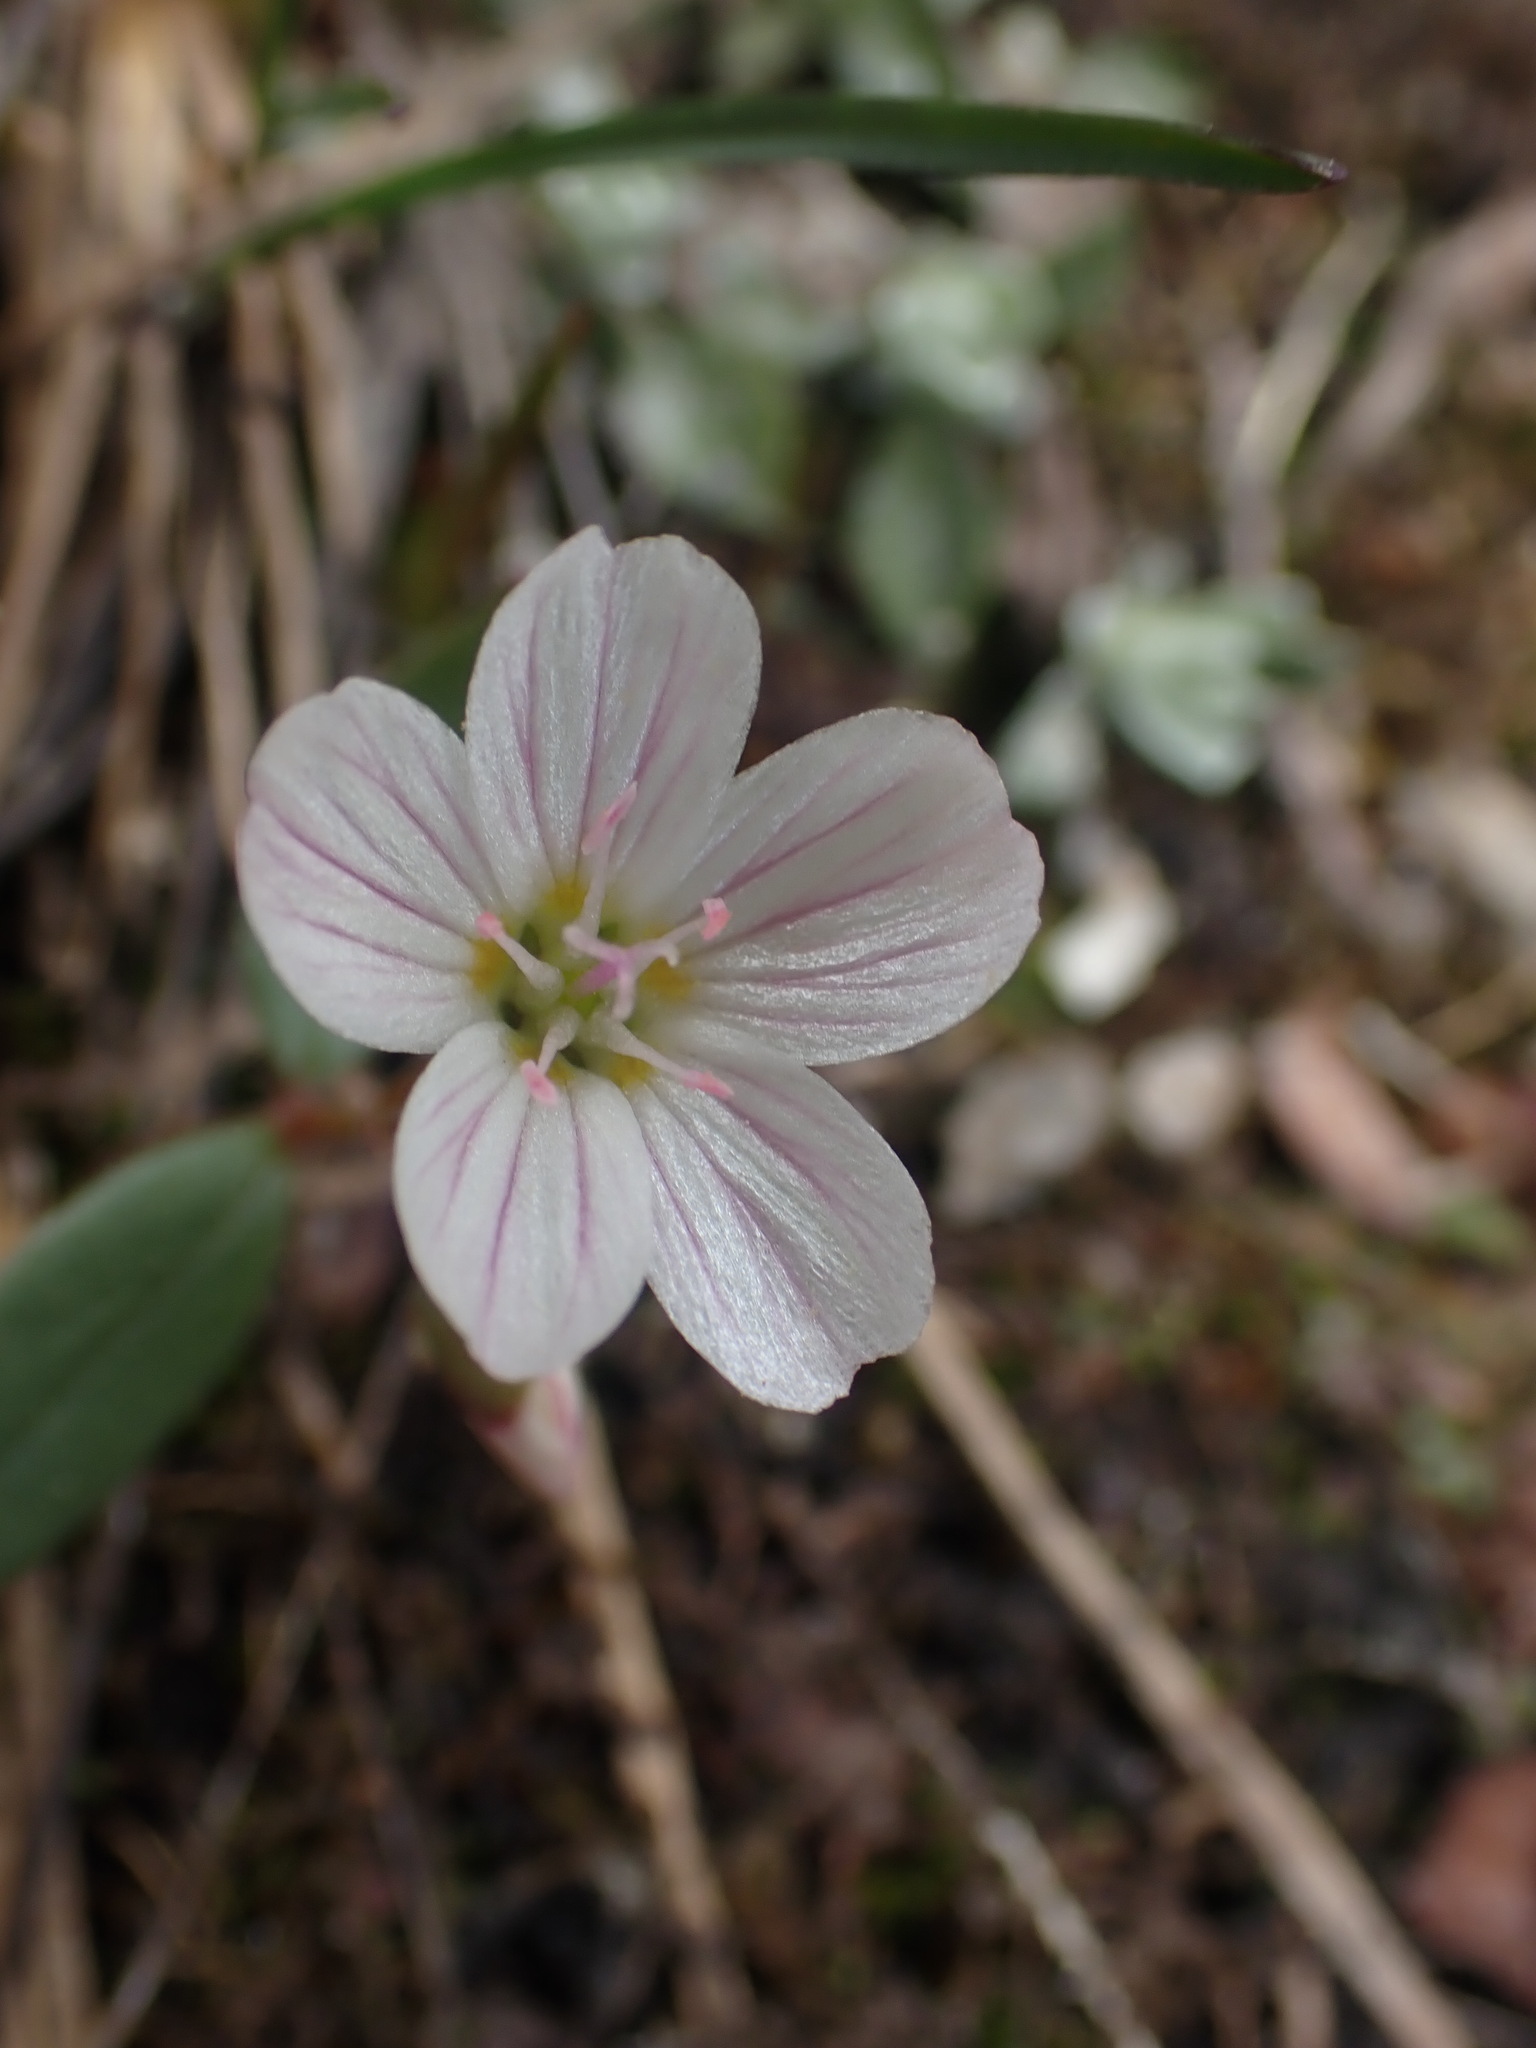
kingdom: Plantae
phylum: Tracheophyta
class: Magnoliopsida
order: Caryophyllales
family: Montiaceae
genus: Claytonia
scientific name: Claytonia lanceolata
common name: Western spring-beauty
